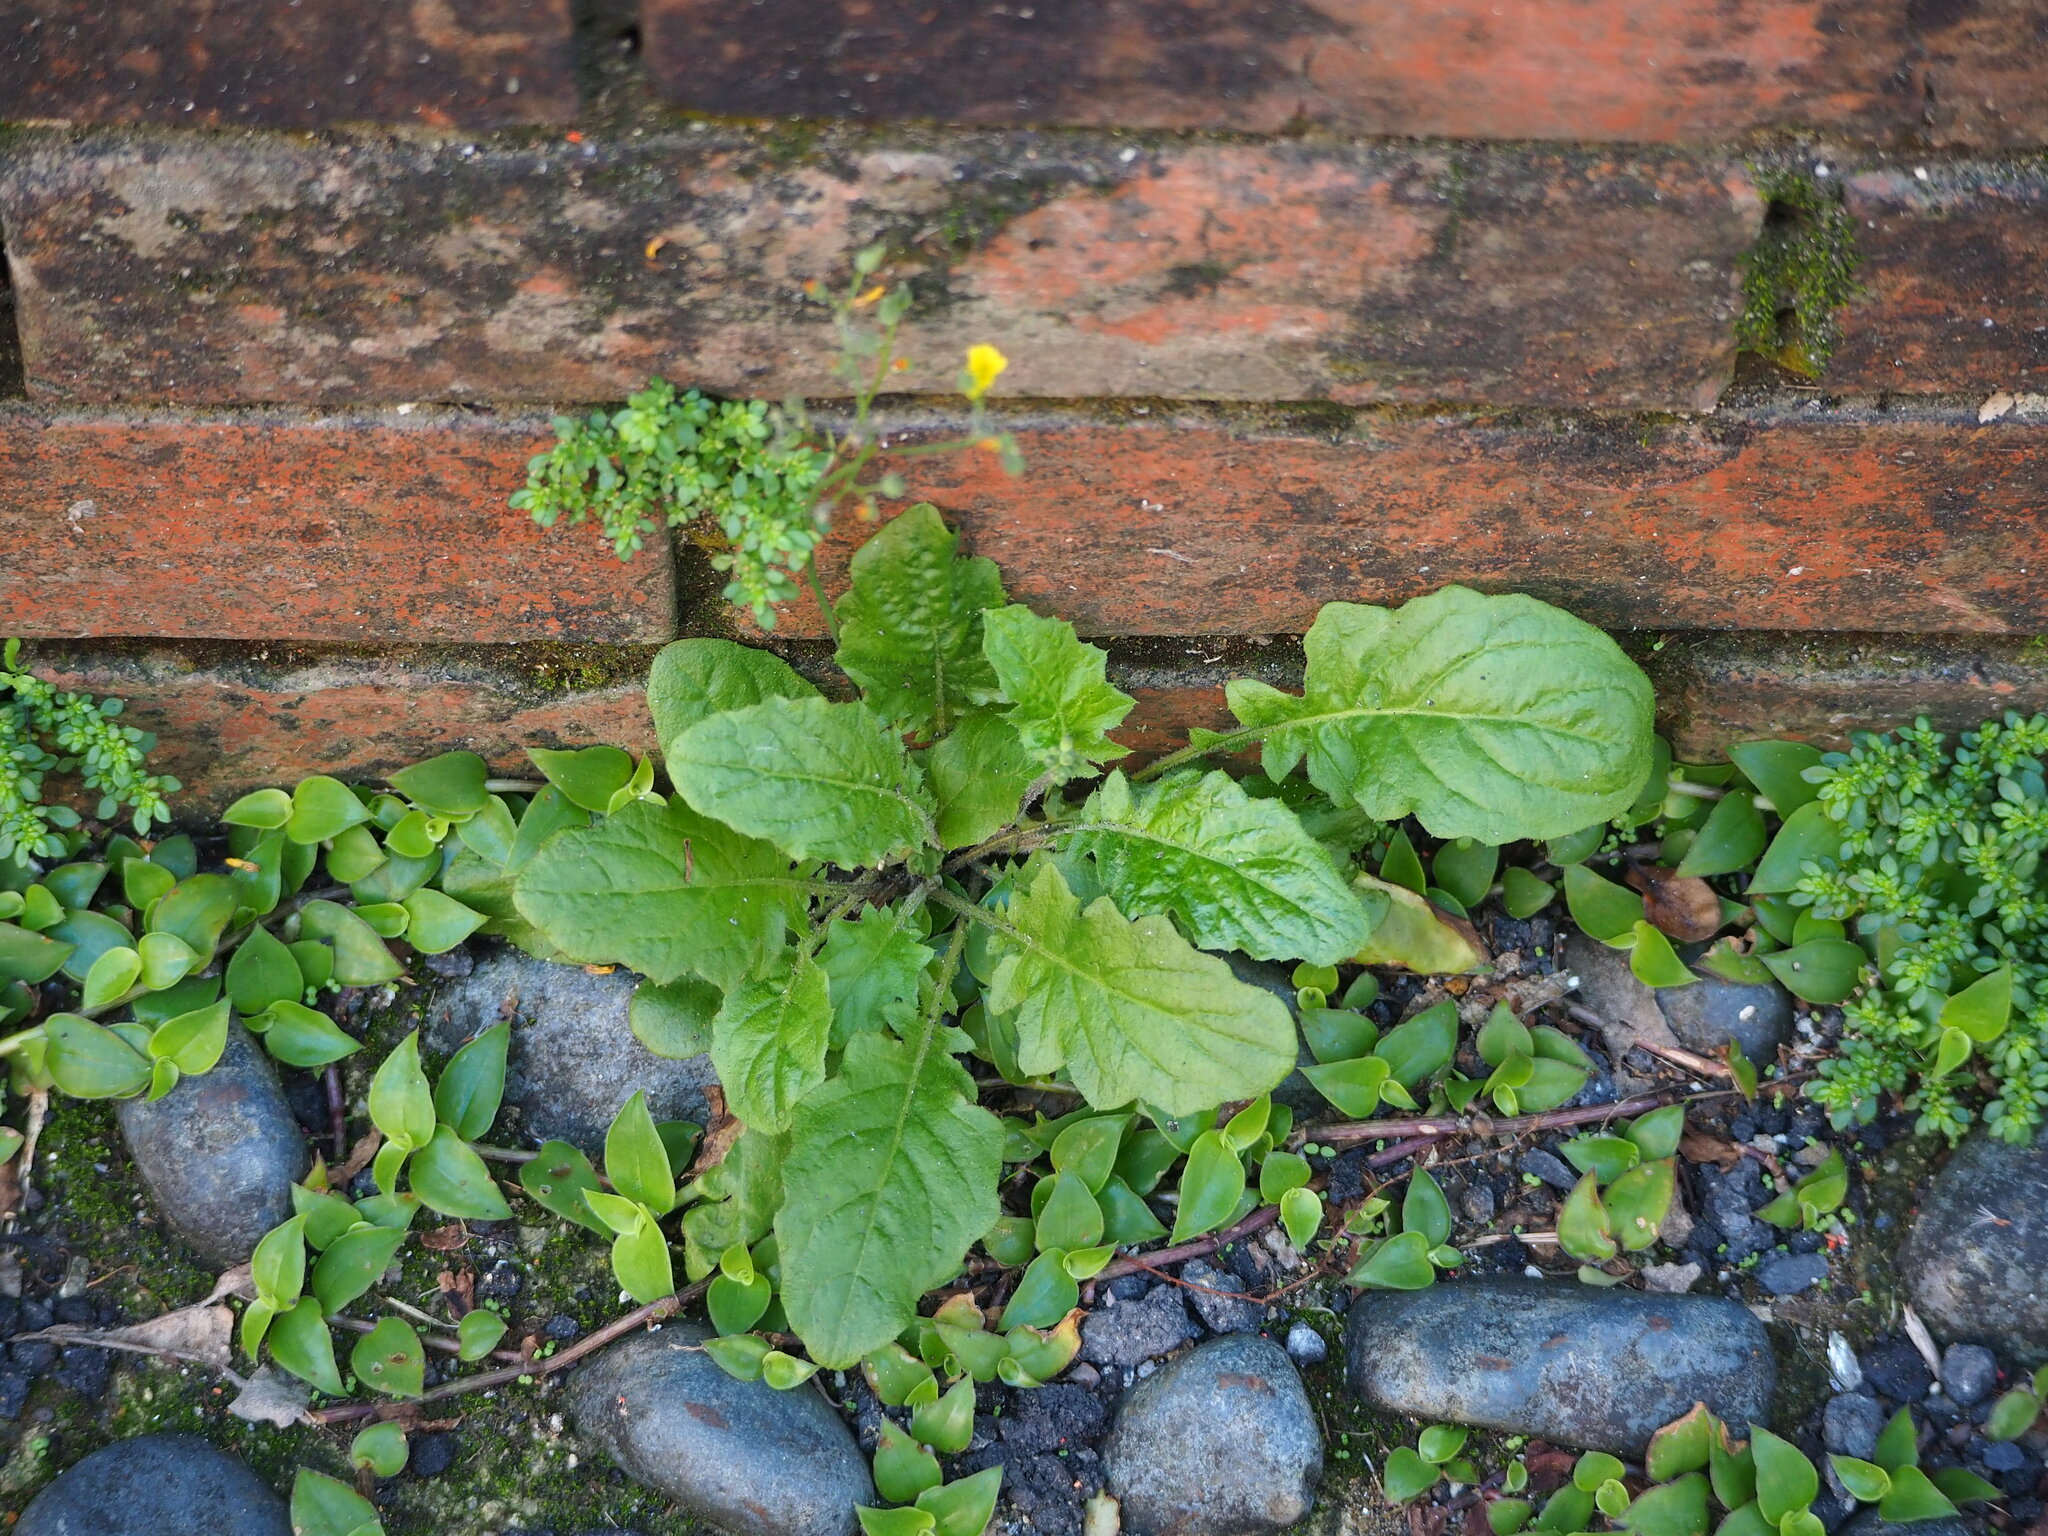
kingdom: Plantae
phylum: Tracheophyta
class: Magnoliopsida
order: Asterales
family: Asteraceae
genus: Youngia
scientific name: Youngia japonica
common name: Oriental false hawksbeard
